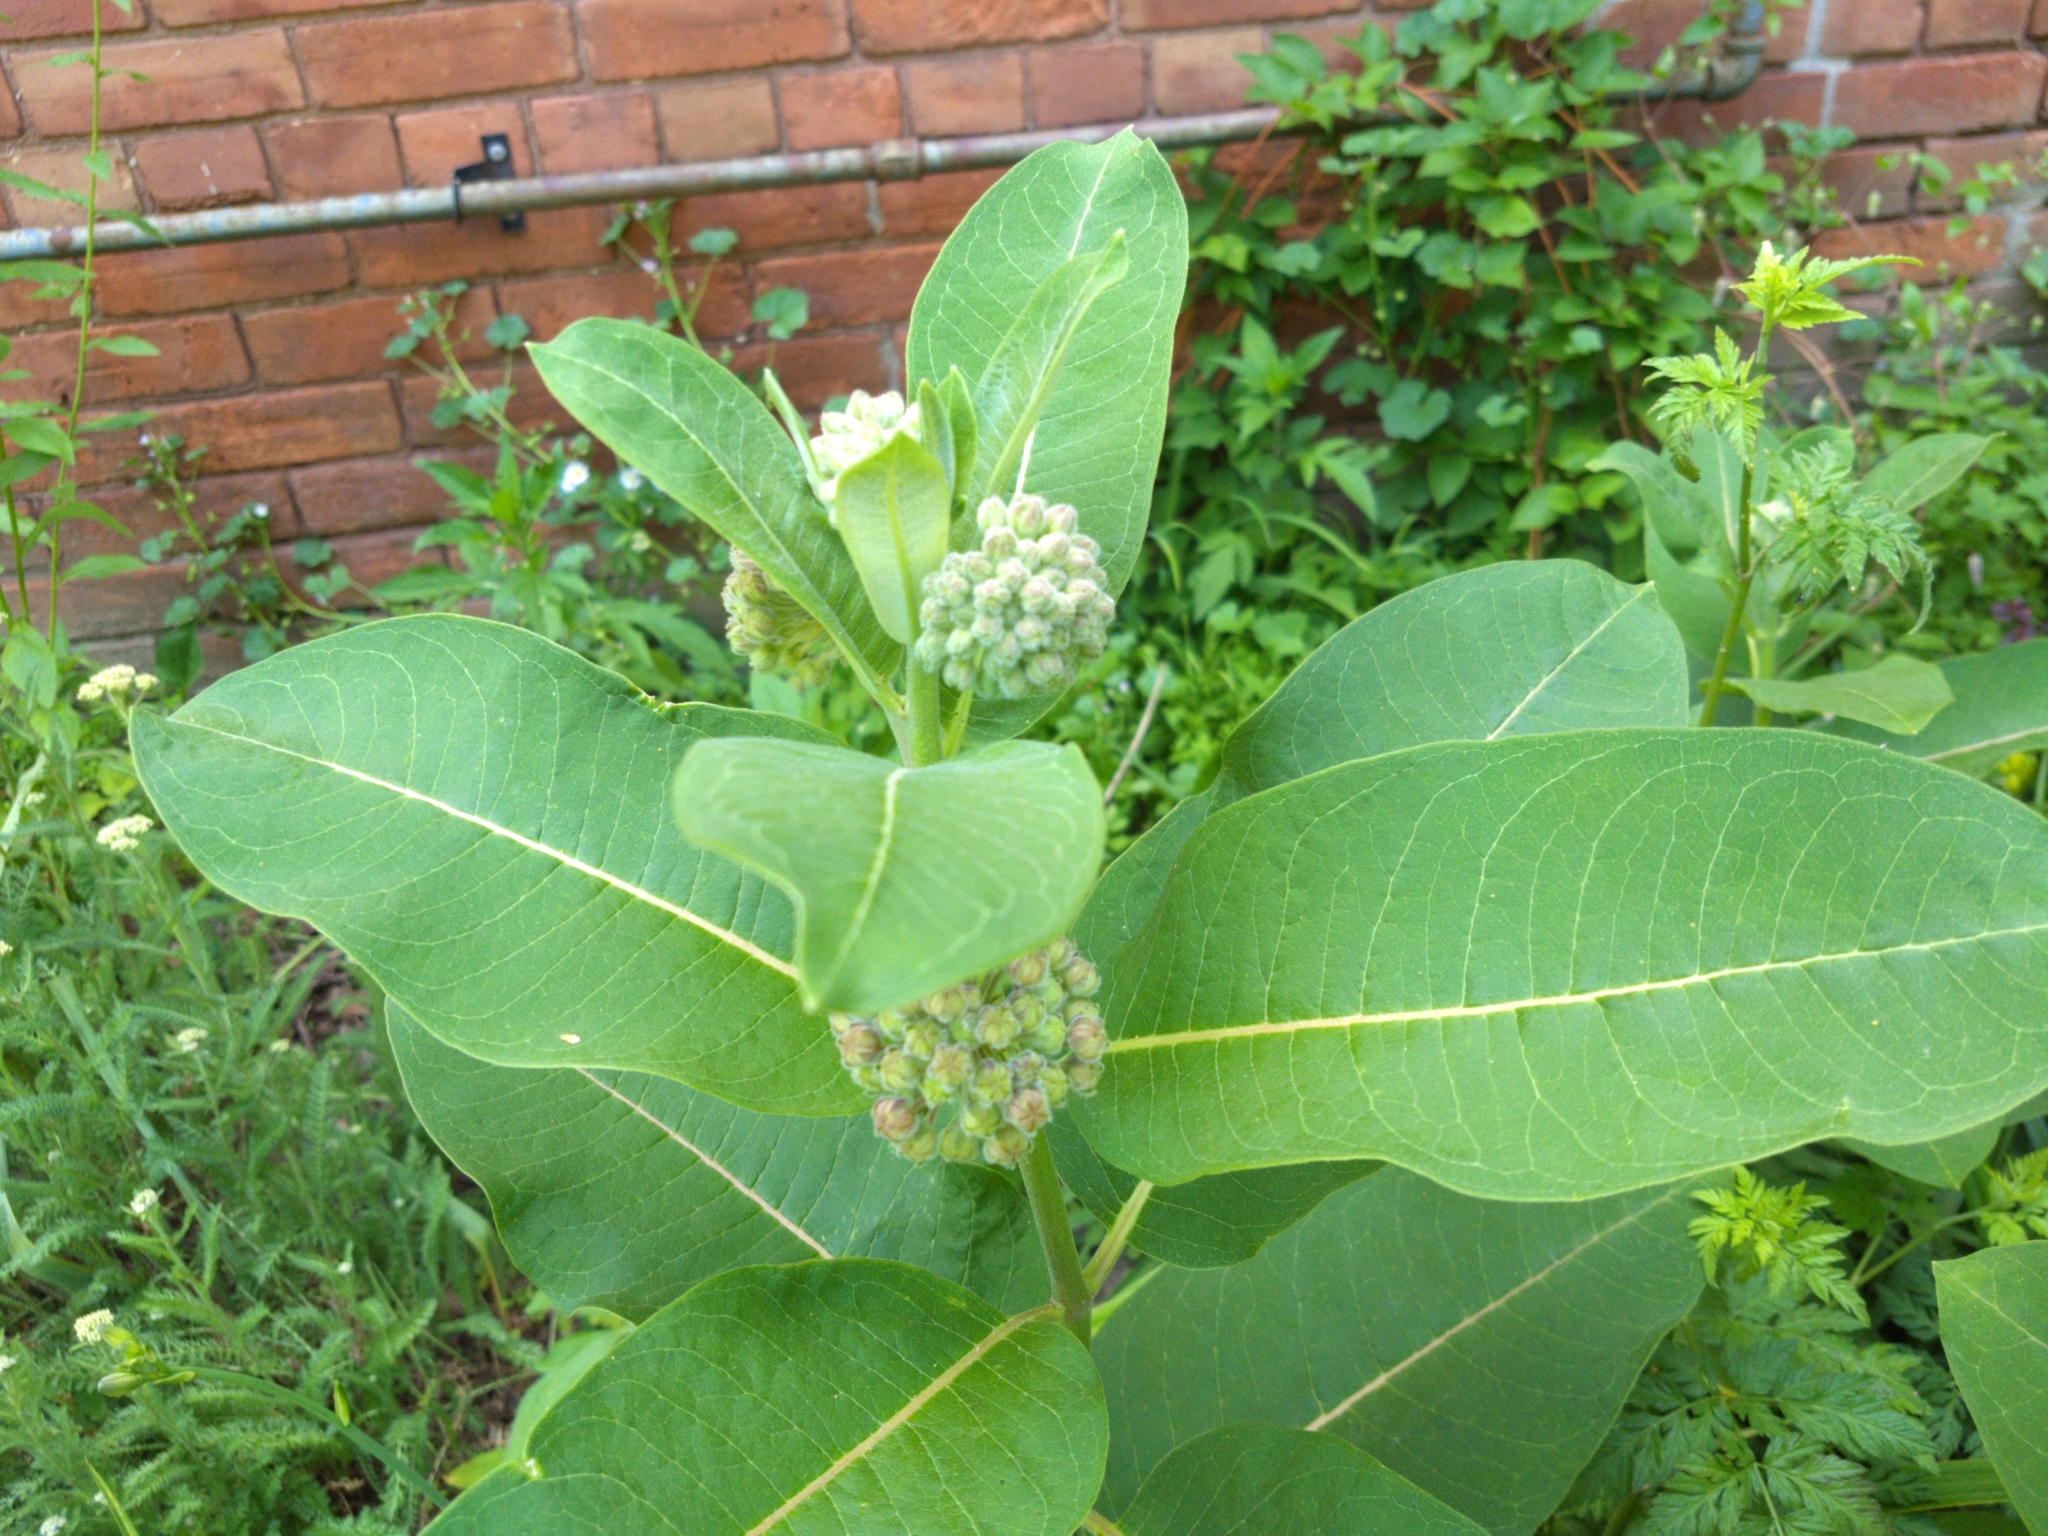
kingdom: Animalia
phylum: Arthropoda
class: Insecta
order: Lepidoptera
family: Nymphalidae
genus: Danaus
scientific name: Danaus plexippus
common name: Monarch
